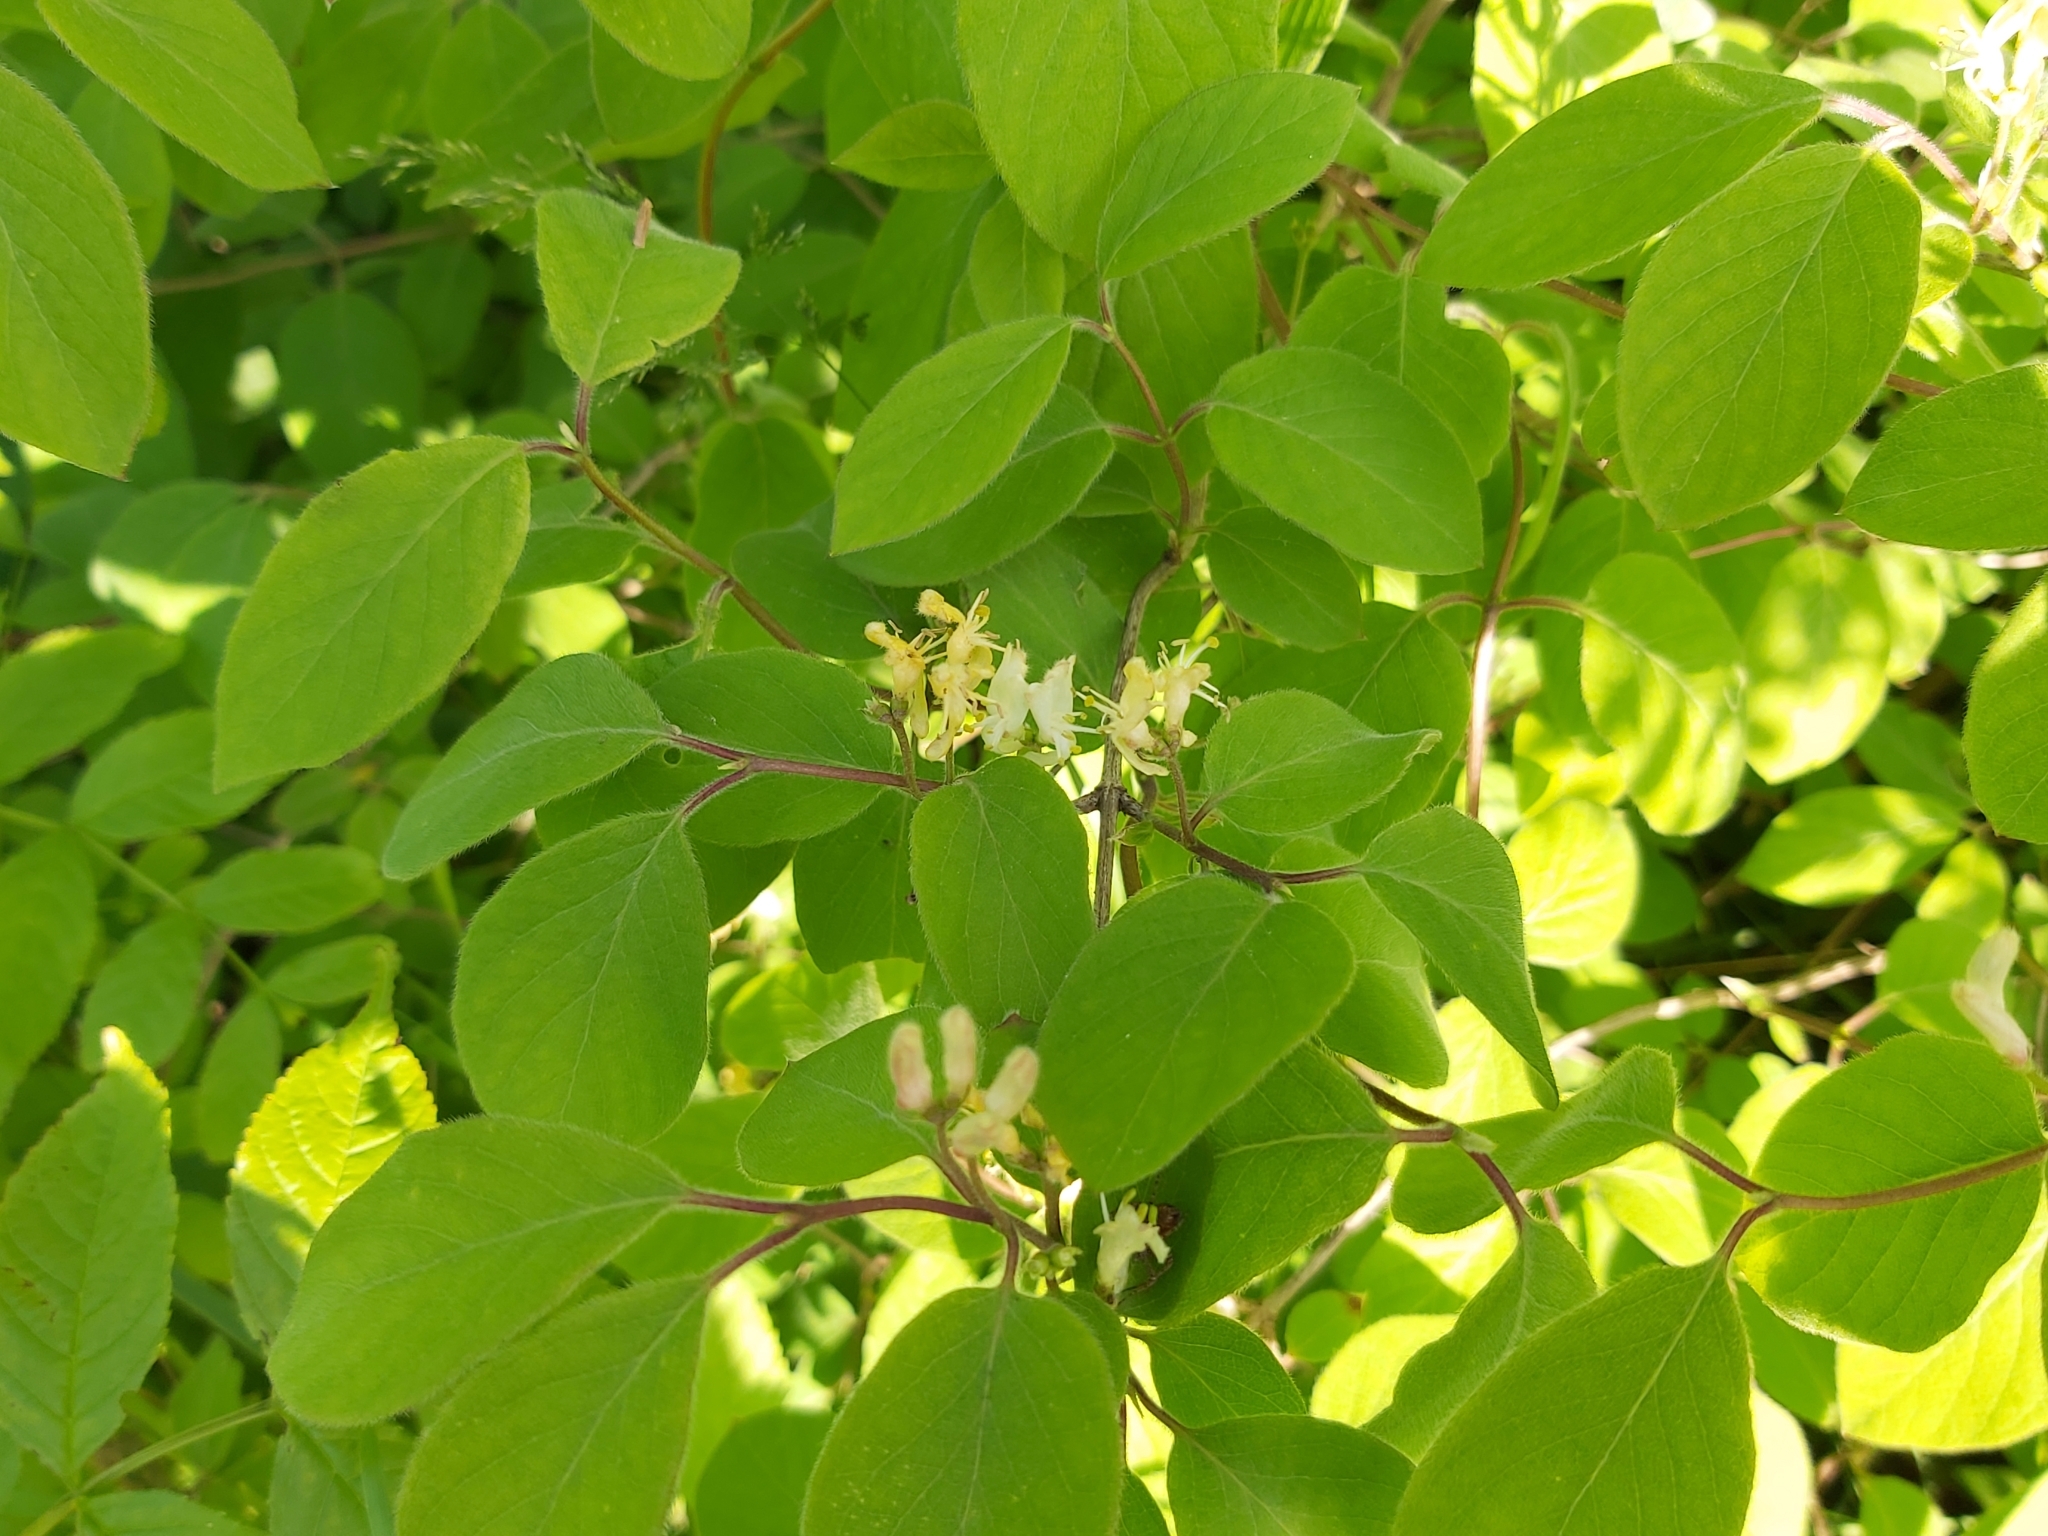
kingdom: Plantae
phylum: Tracheophyta
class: Magnoliopsida
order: Dipsacales
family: Caprifoliaceae
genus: Lonicera
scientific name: Lonicera xylosteum
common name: Fly honeysuckle
